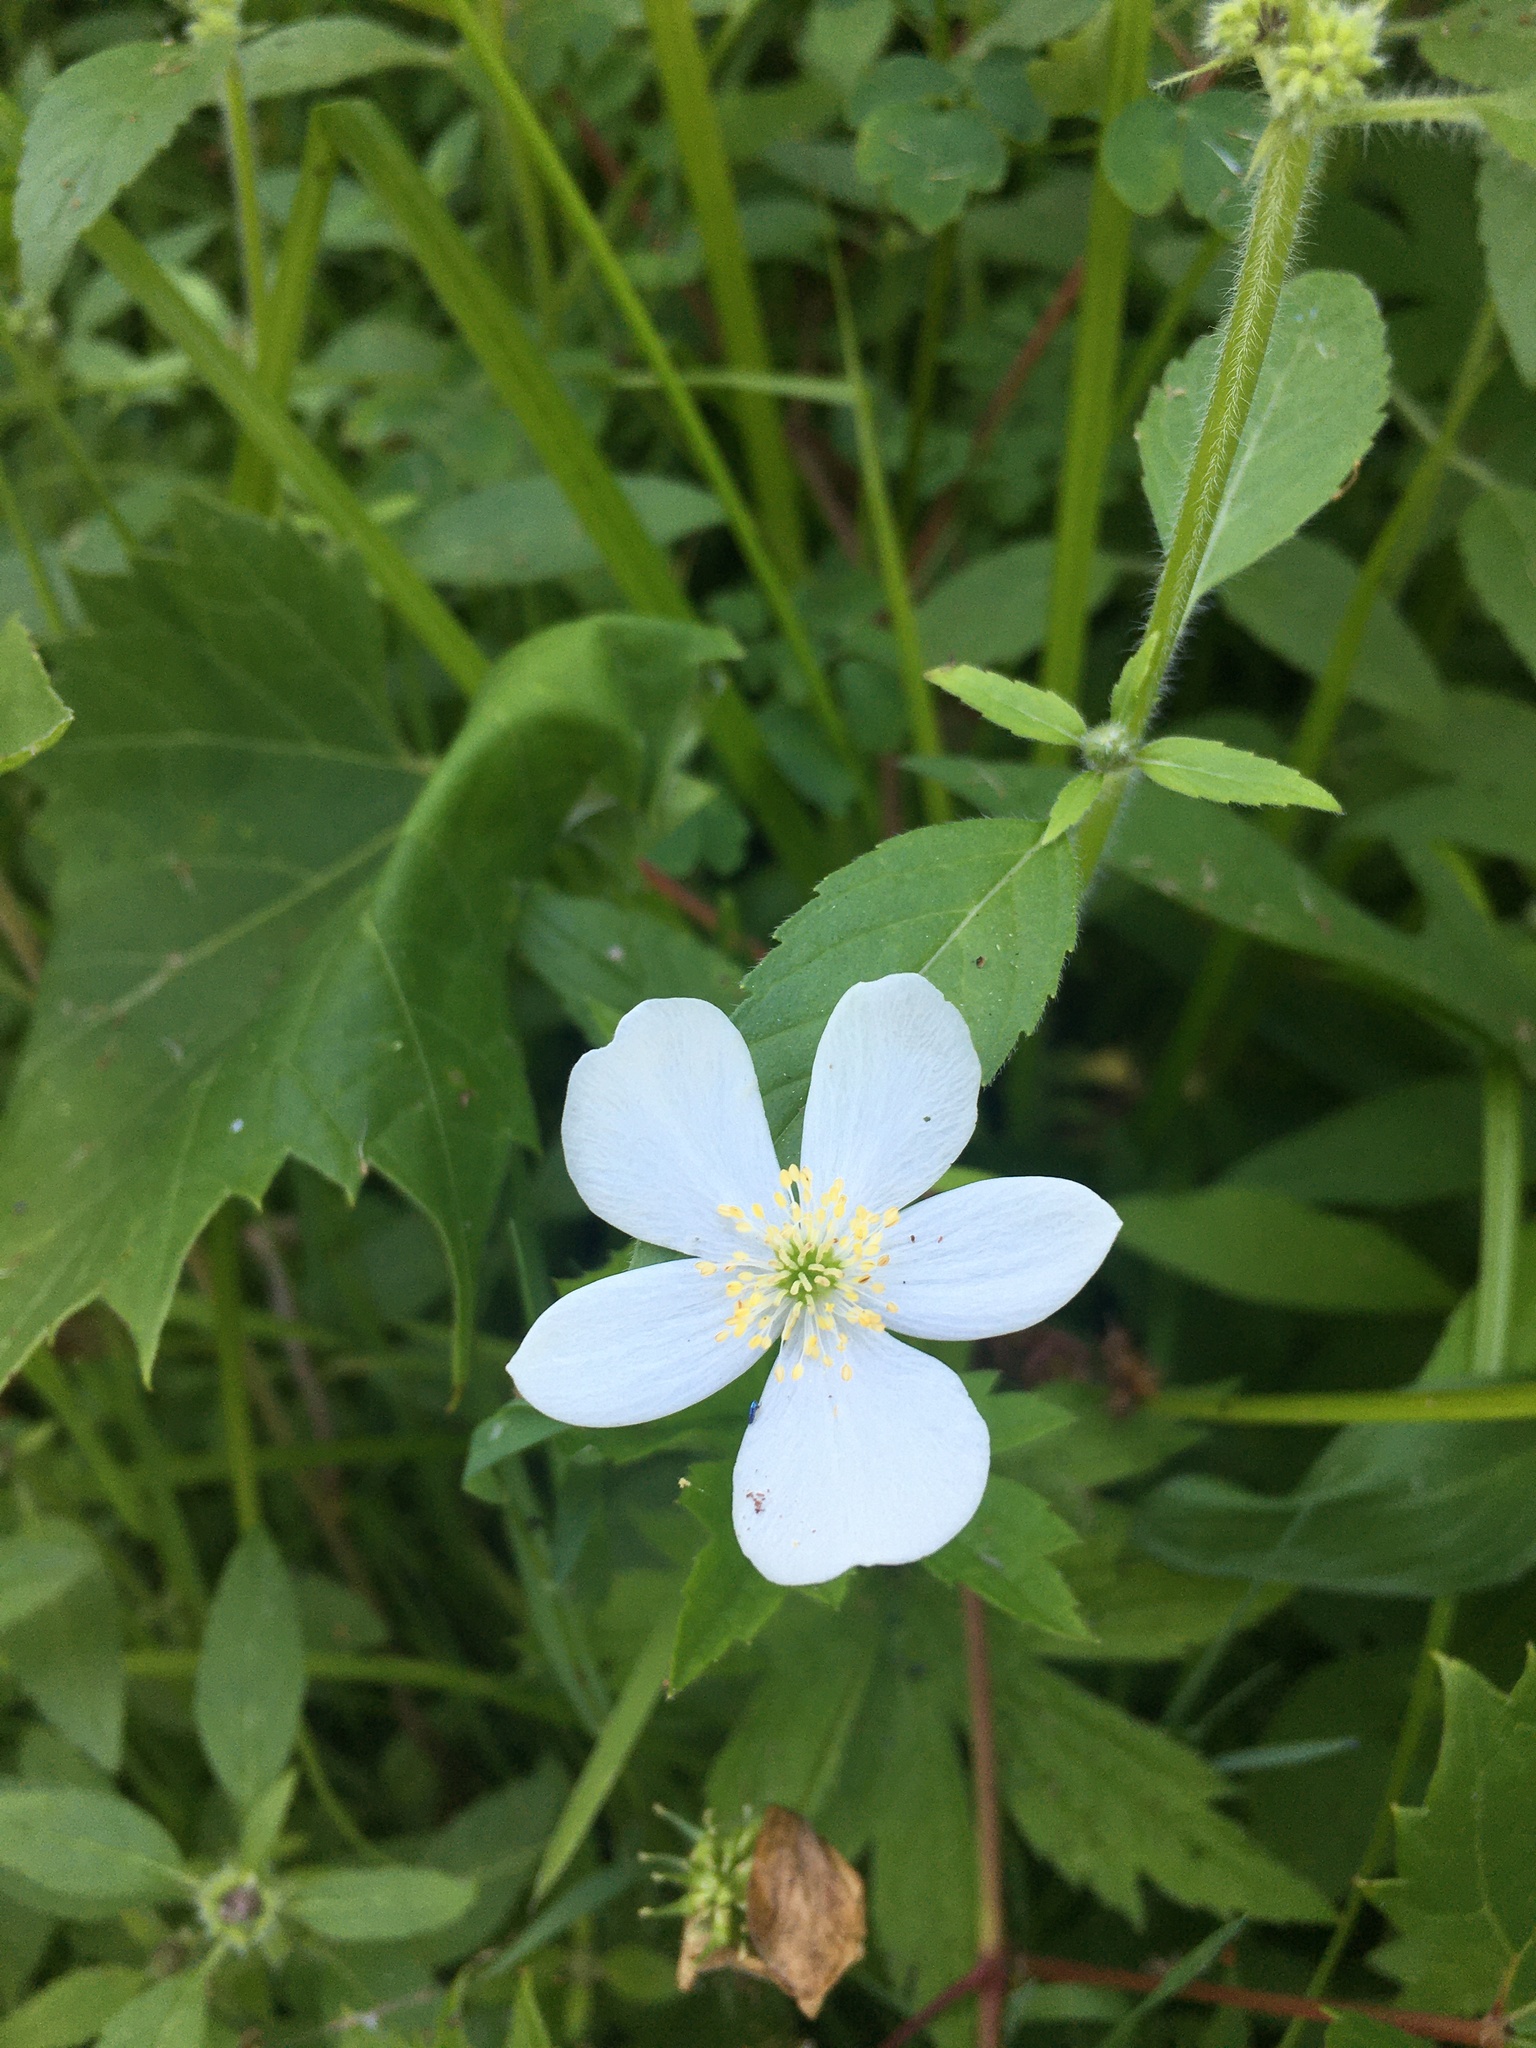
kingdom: Plantae
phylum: Tracheophyta
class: Magnoliopsida
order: Ranunculales
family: Ranunculaceae
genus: Anemonastrum
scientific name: Anemonastrum canadense
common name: Canada anemone
